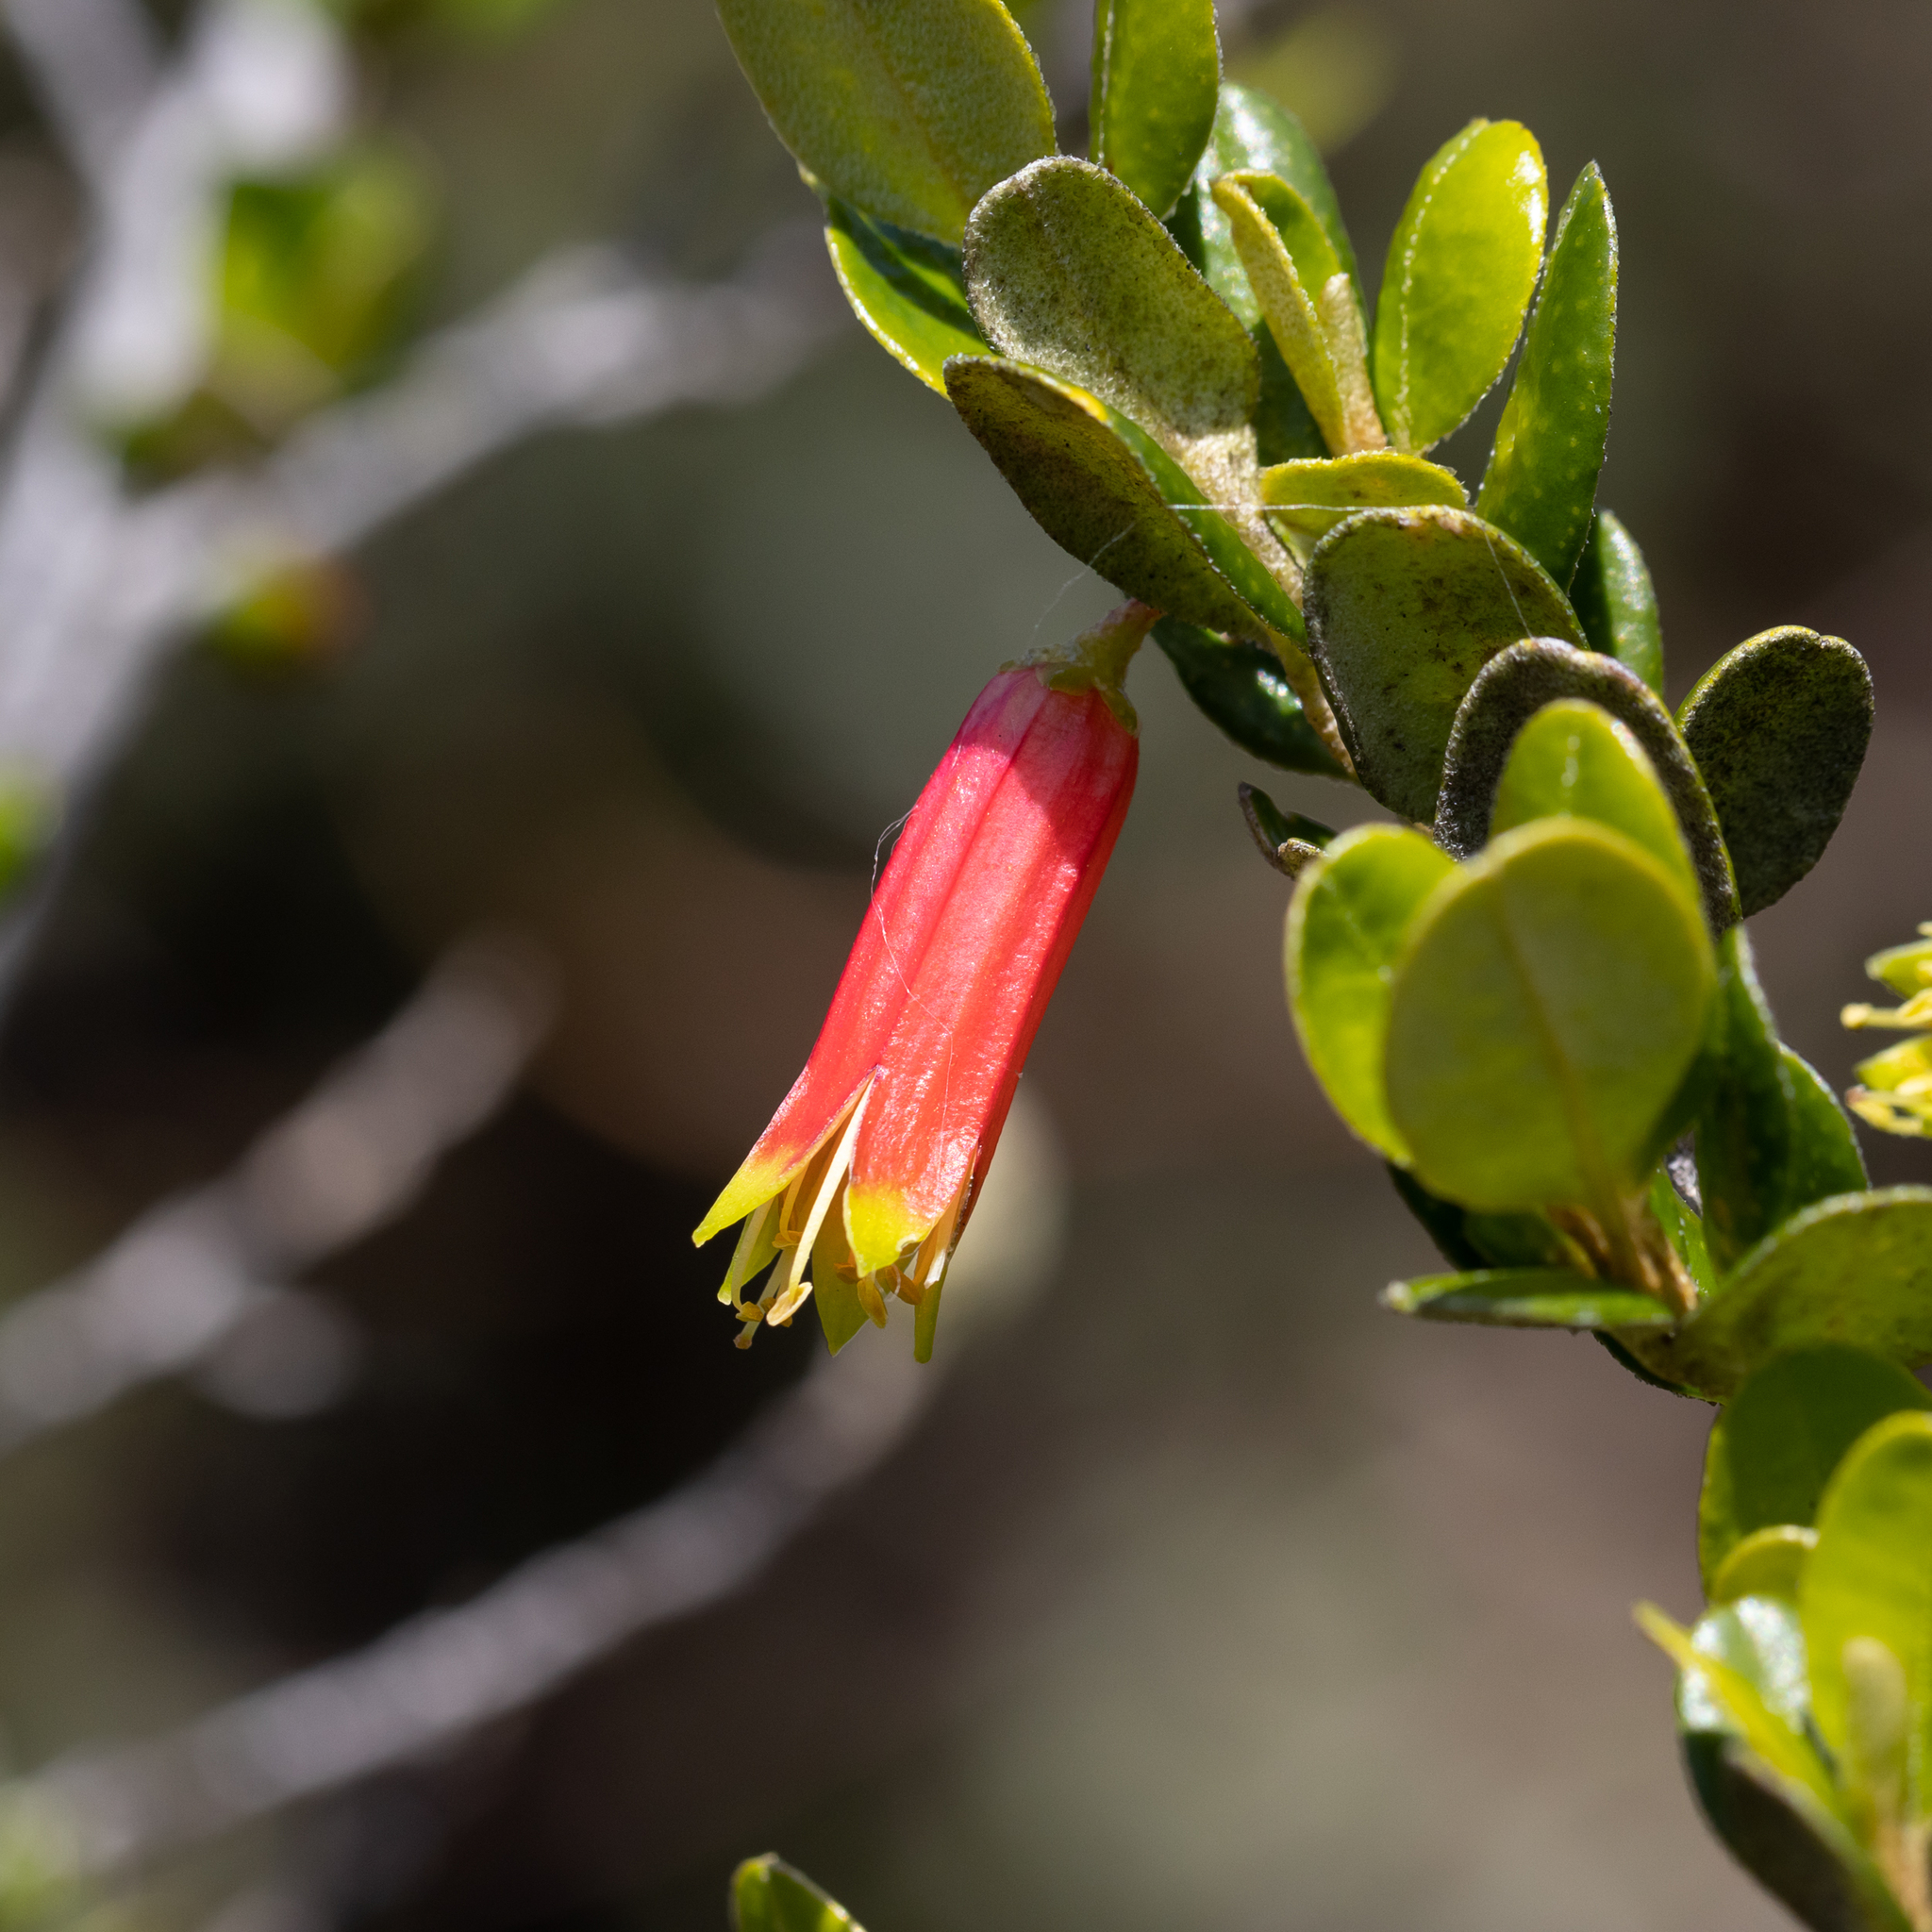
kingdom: Plantae
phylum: Tracheophyta
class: Magnoliopsida
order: Sapindales
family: Rutaceae
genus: Nematolepis
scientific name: Nematolepis phebalioides
